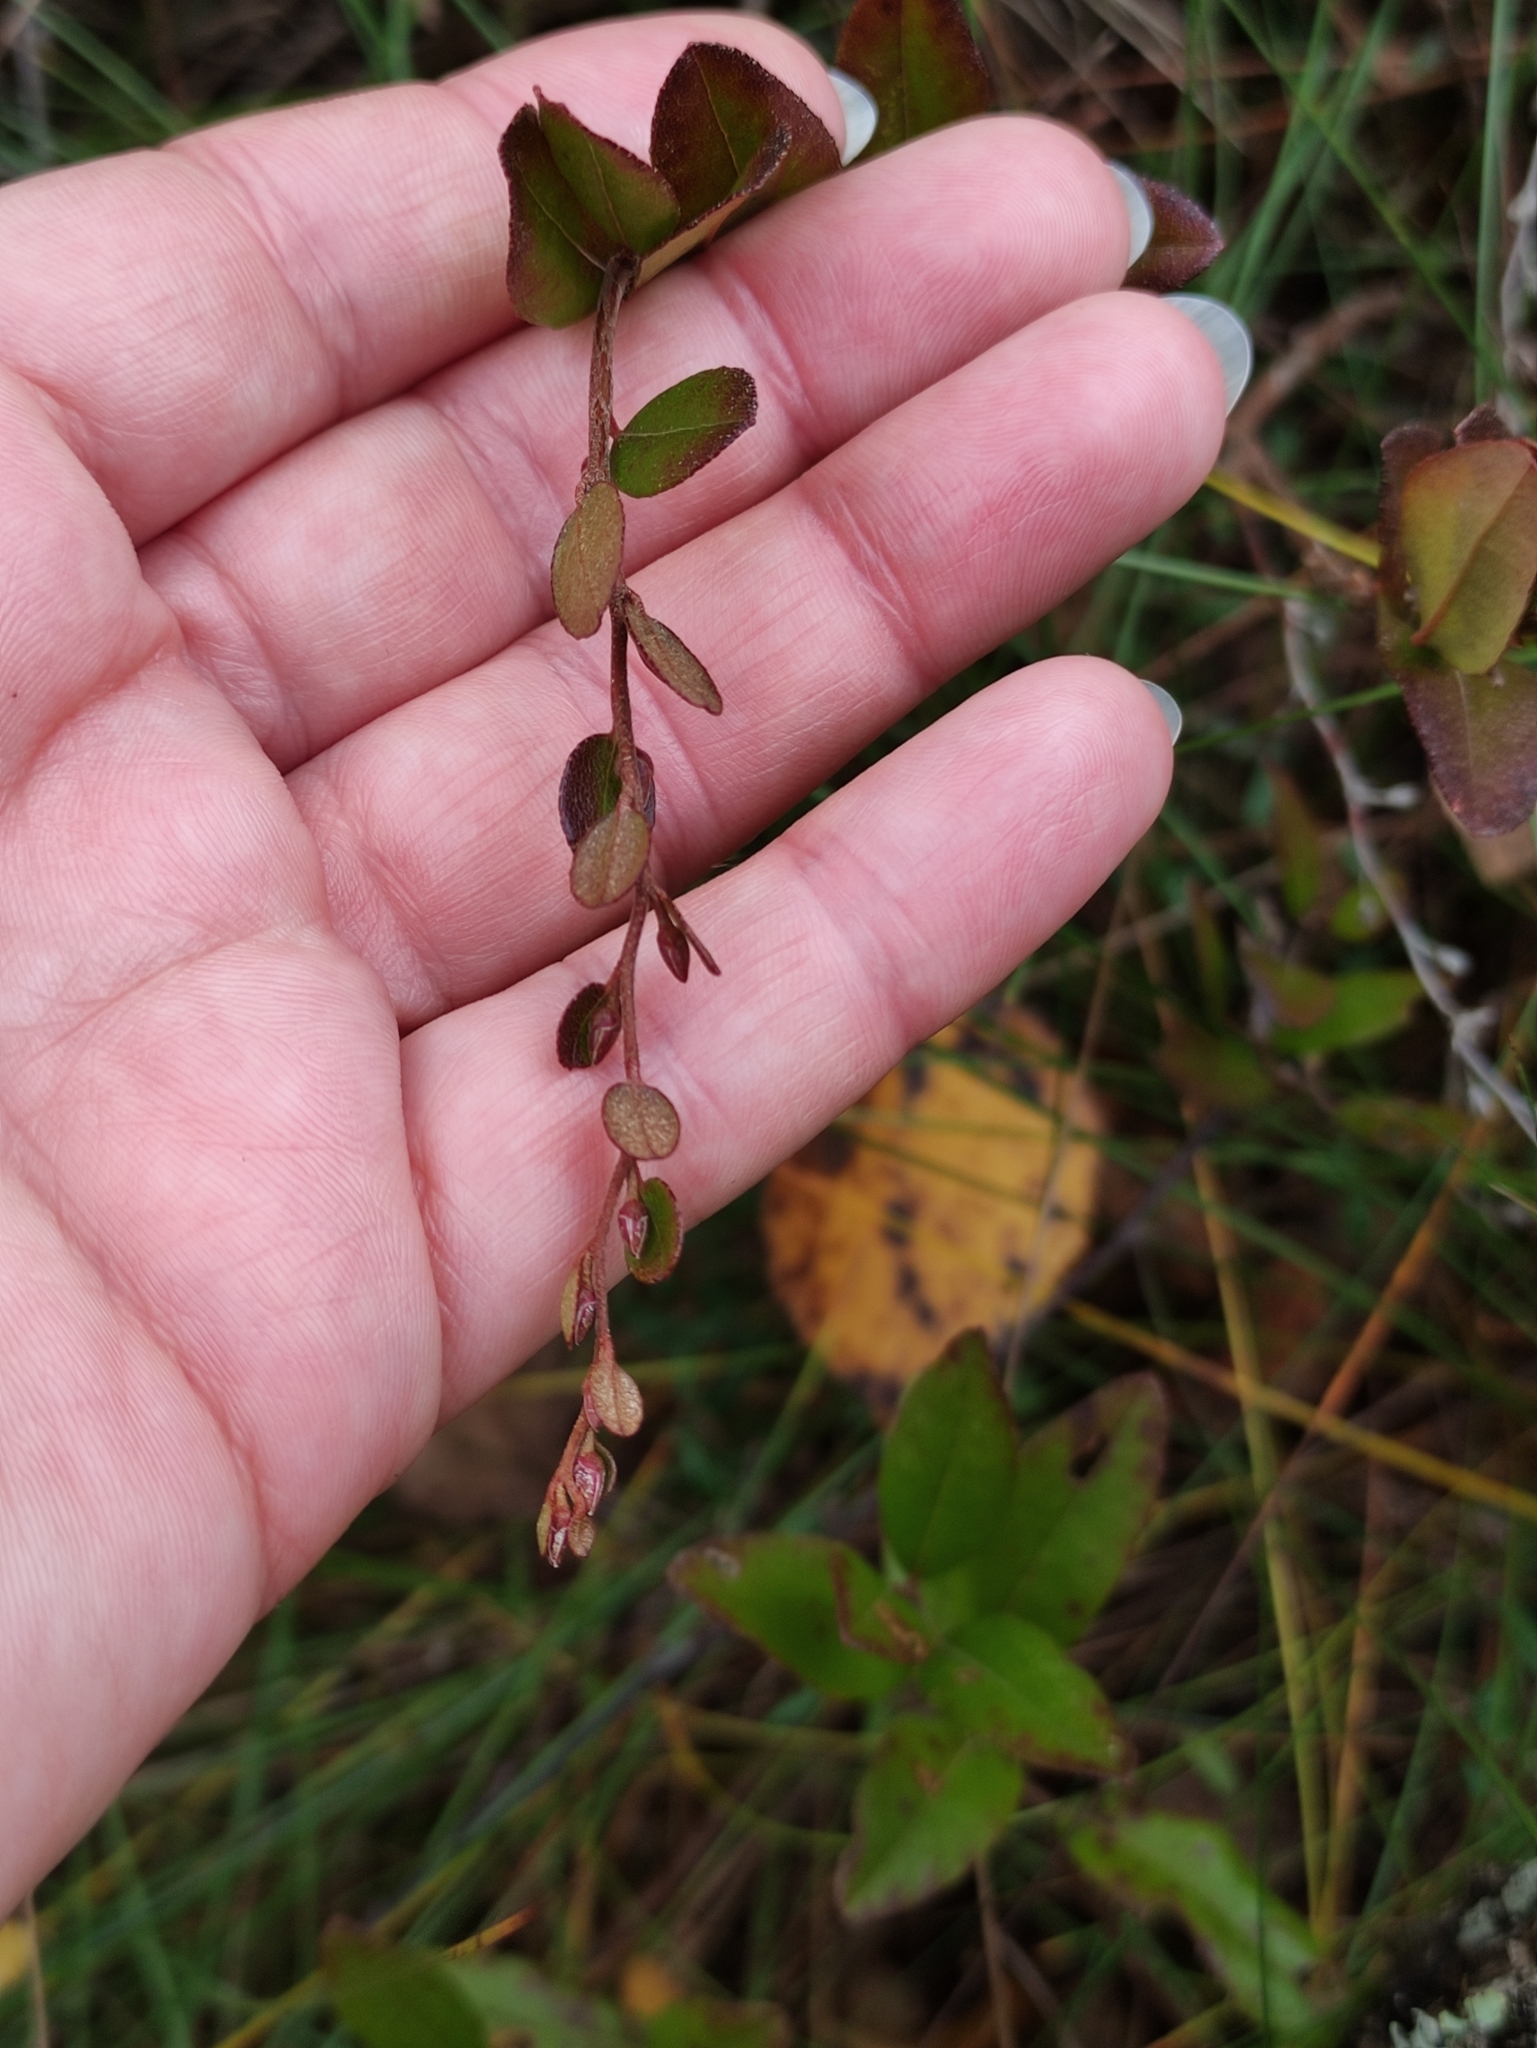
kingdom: Plantae
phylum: Tracheophyta
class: Magnoliopsida
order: Ericales
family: Ericaceae
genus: Chamaedaphne
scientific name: Chamaedaphne calyculata
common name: Leatherleaf
